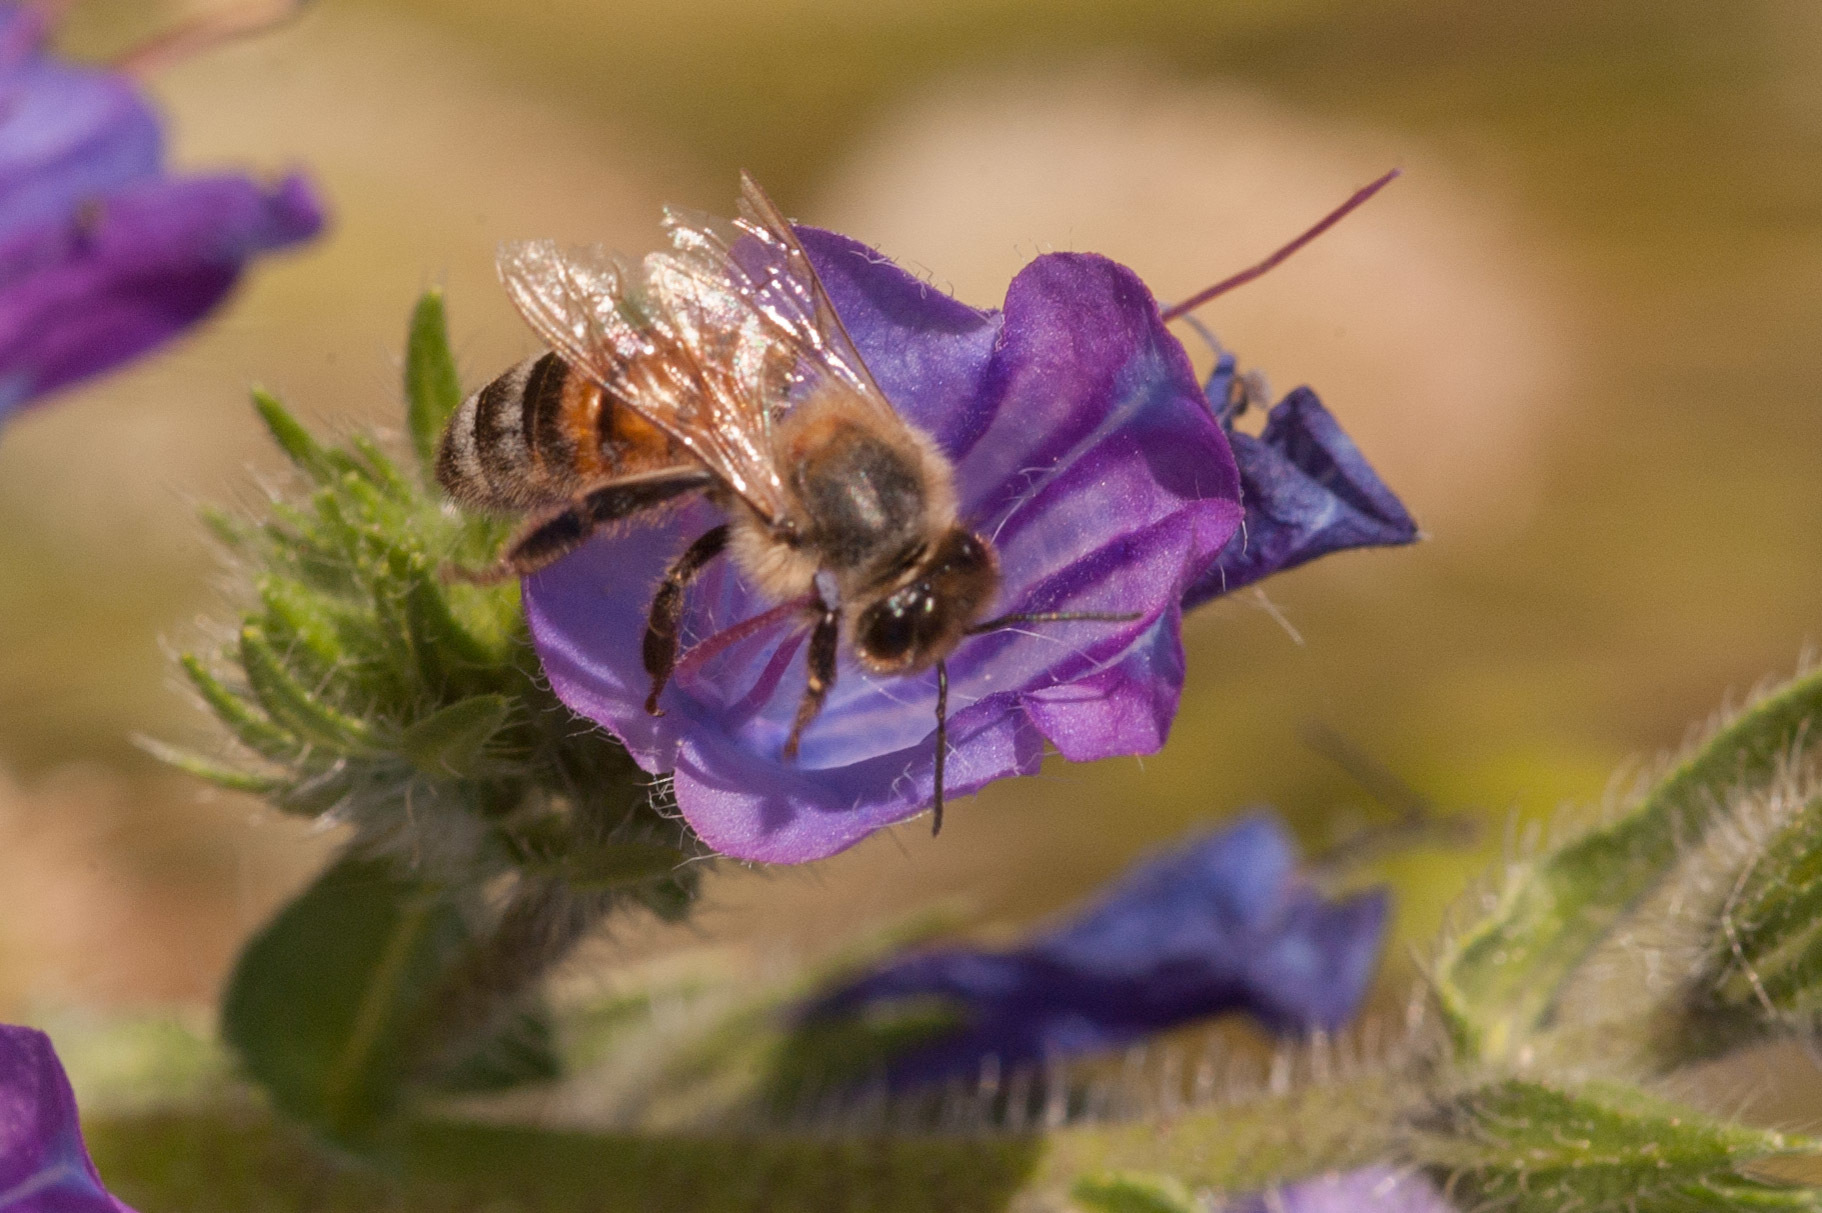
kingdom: Animalia
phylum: Arthropoda
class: Insecta
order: Hymenoptera
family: Apidae
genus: Apis
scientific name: Apis mellifera
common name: Honey bee
